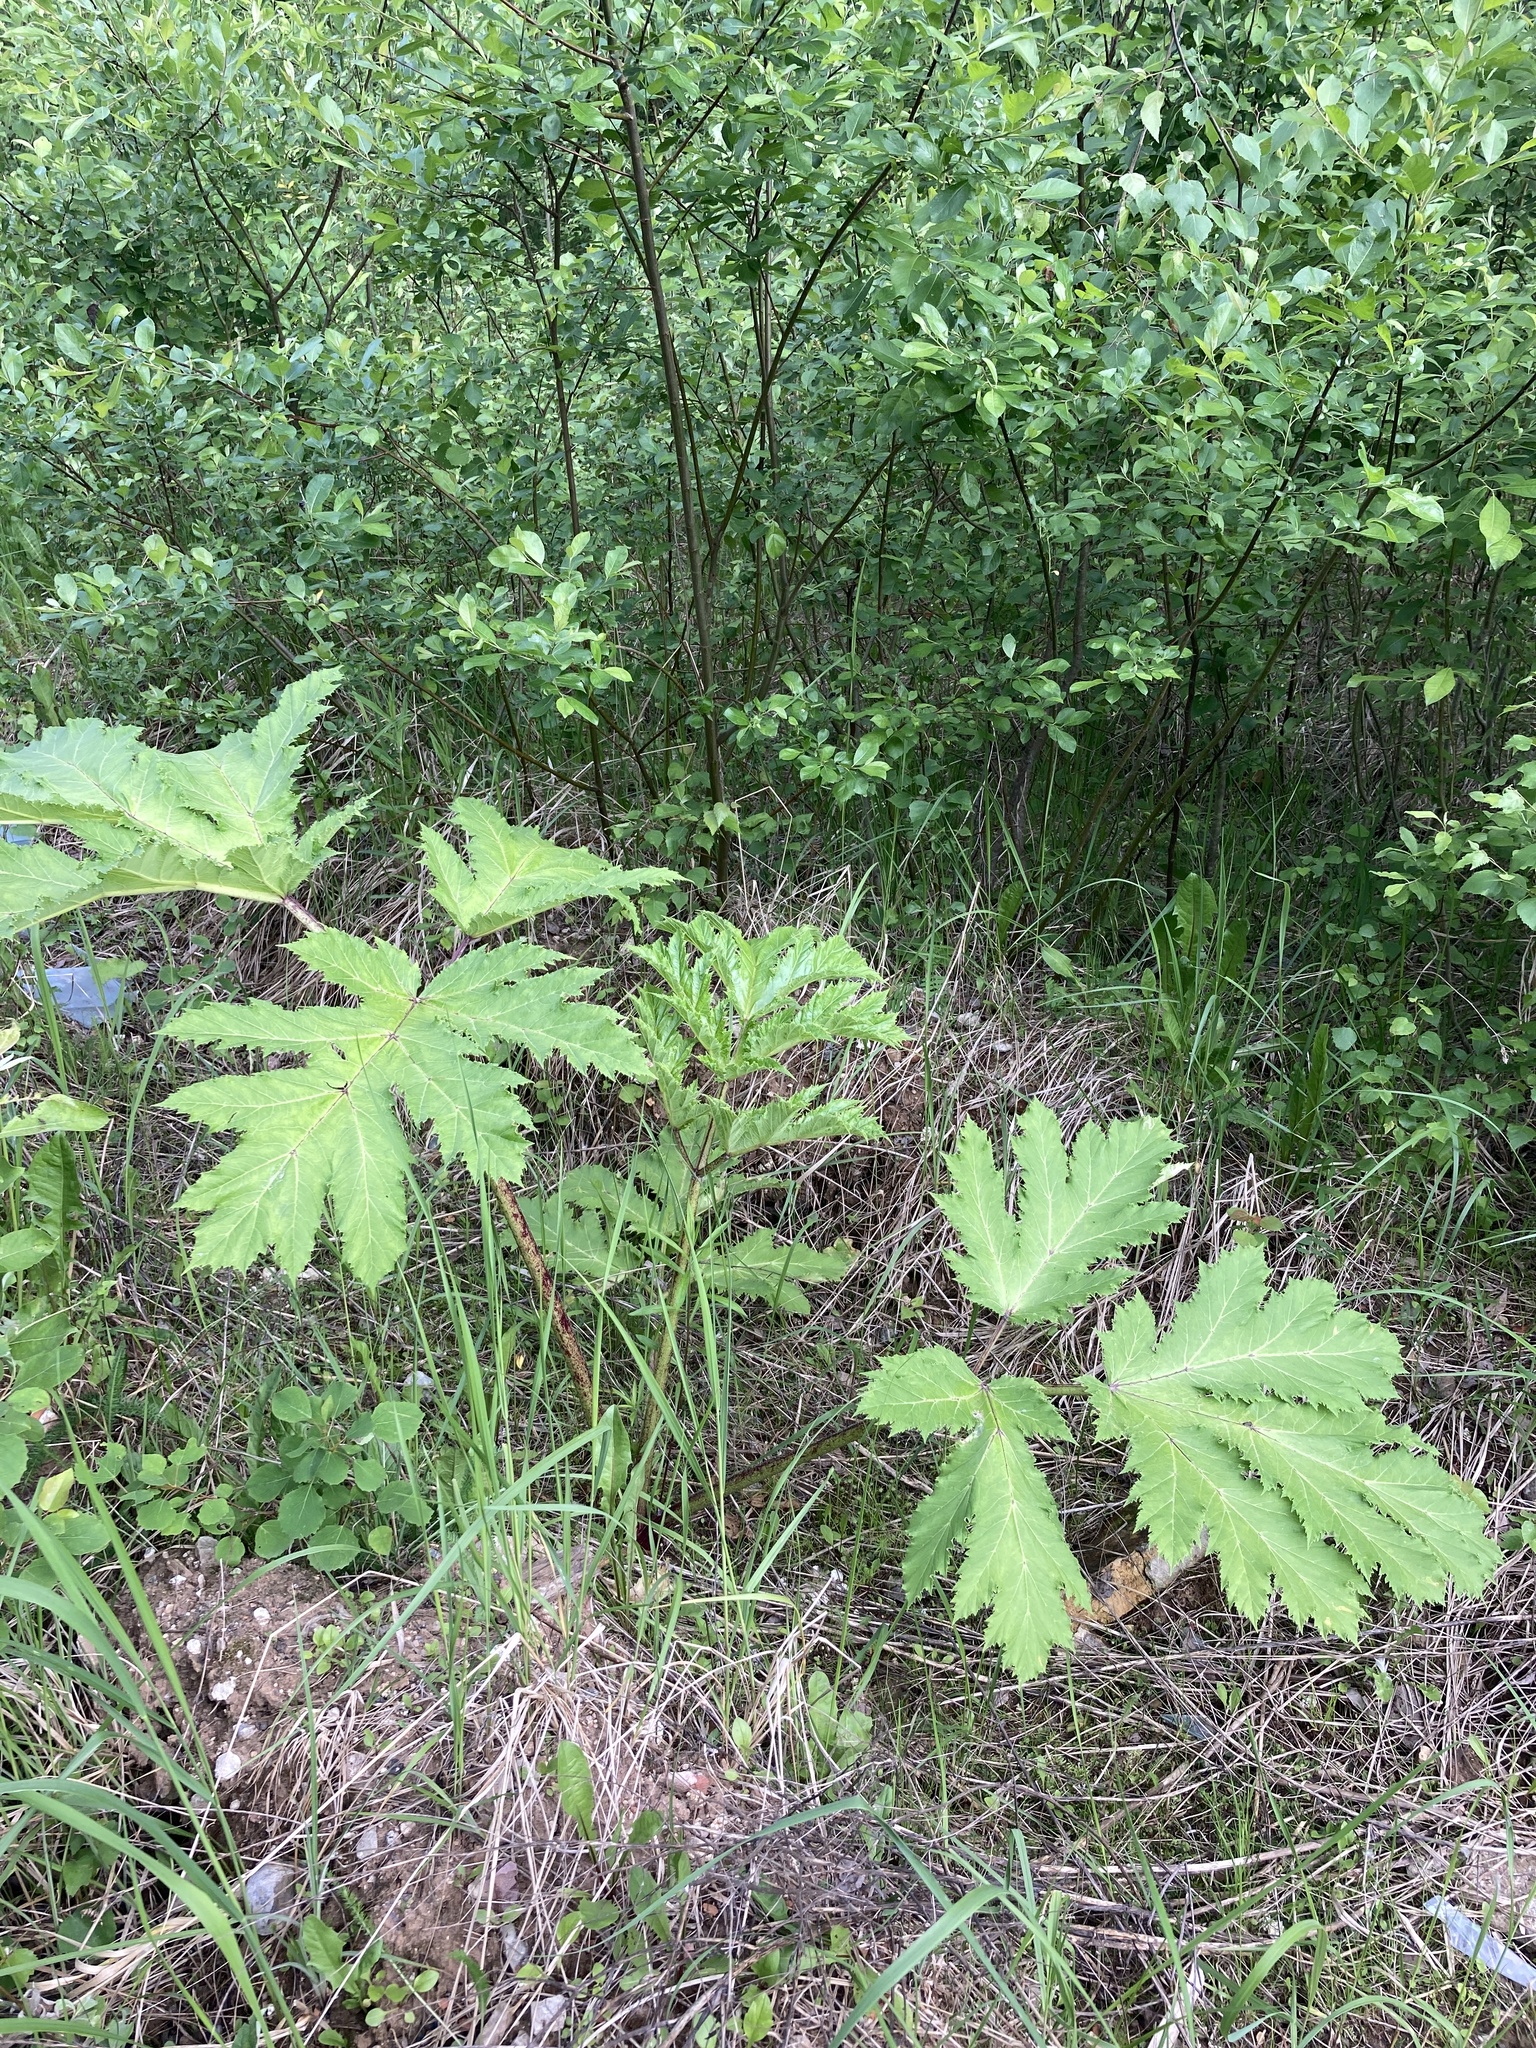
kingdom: Plantae
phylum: Tracheophyta
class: Magnoliopsida
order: Apiales
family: Apiaceae
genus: Heracleum
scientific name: Heracleum sosnowskyi
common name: Sosnowsky's hogweed
